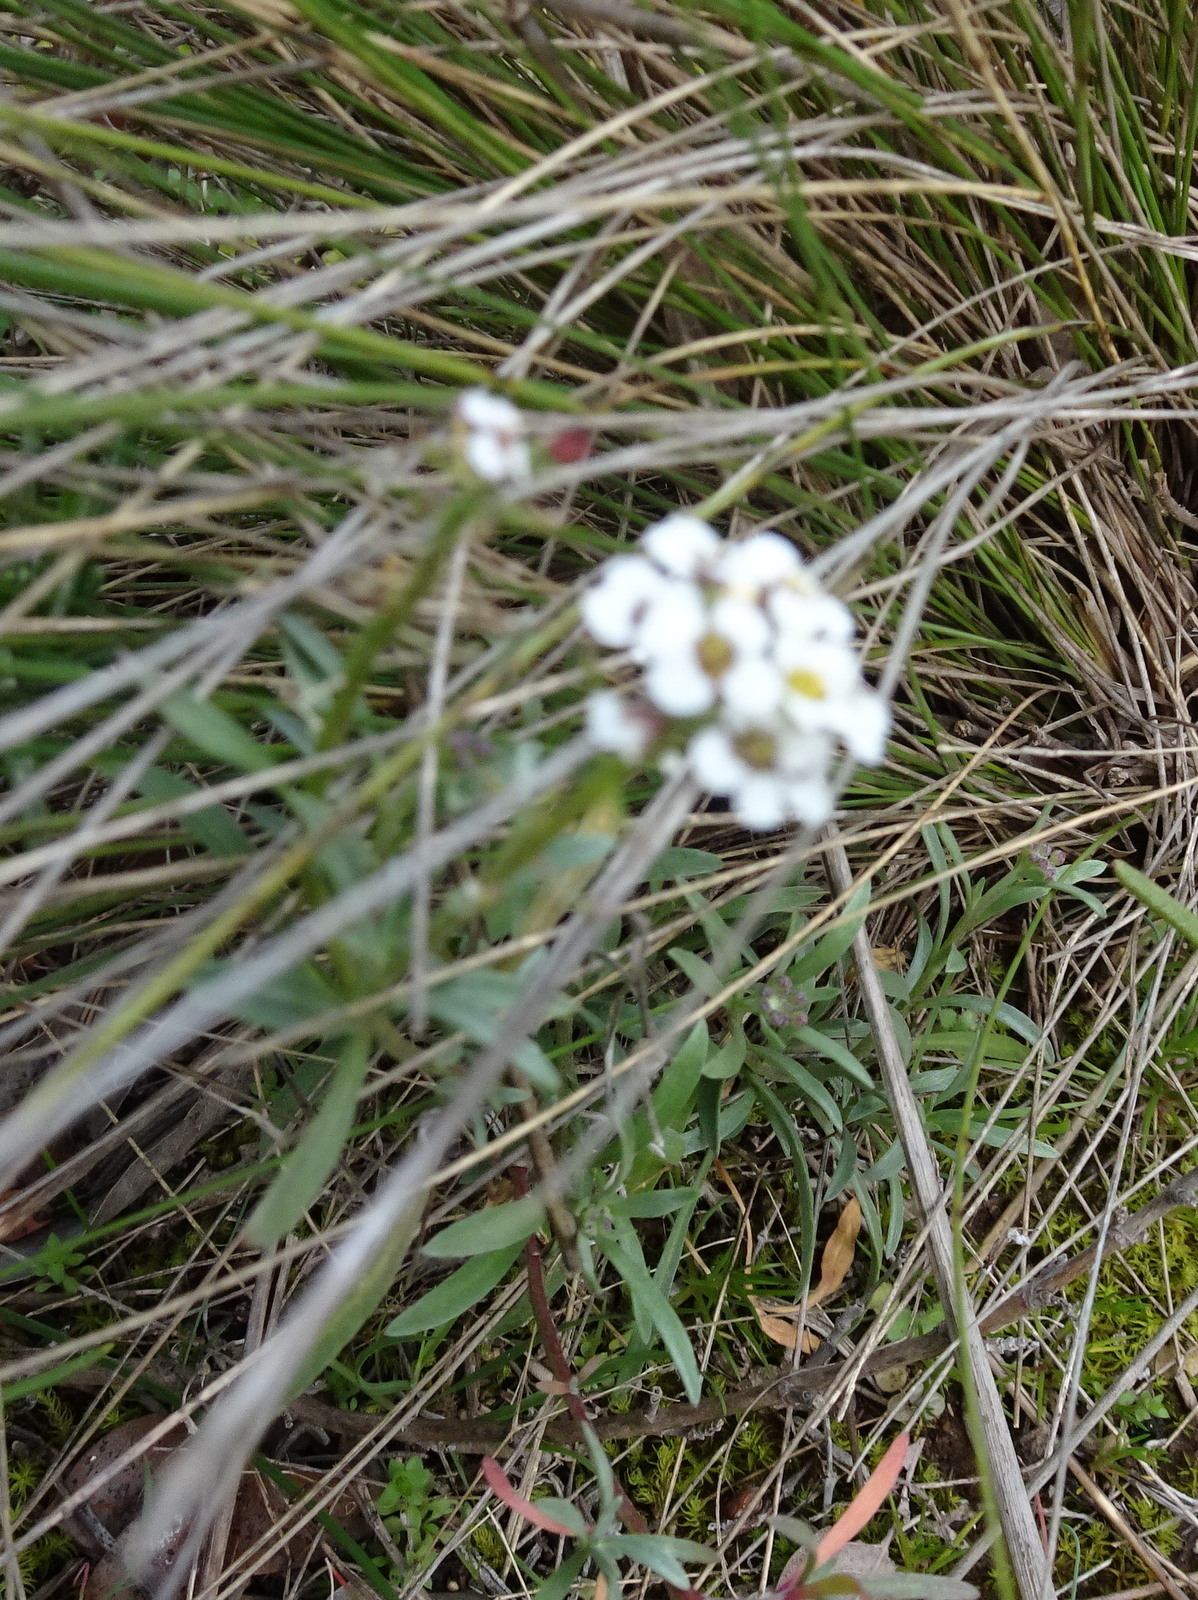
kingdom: Plantae
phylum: Tracheophyta
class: Magnoliopsida
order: Brassicales
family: Brassicaceae
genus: Lobularia
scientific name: Lobularia maritima
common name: Sweet alison
